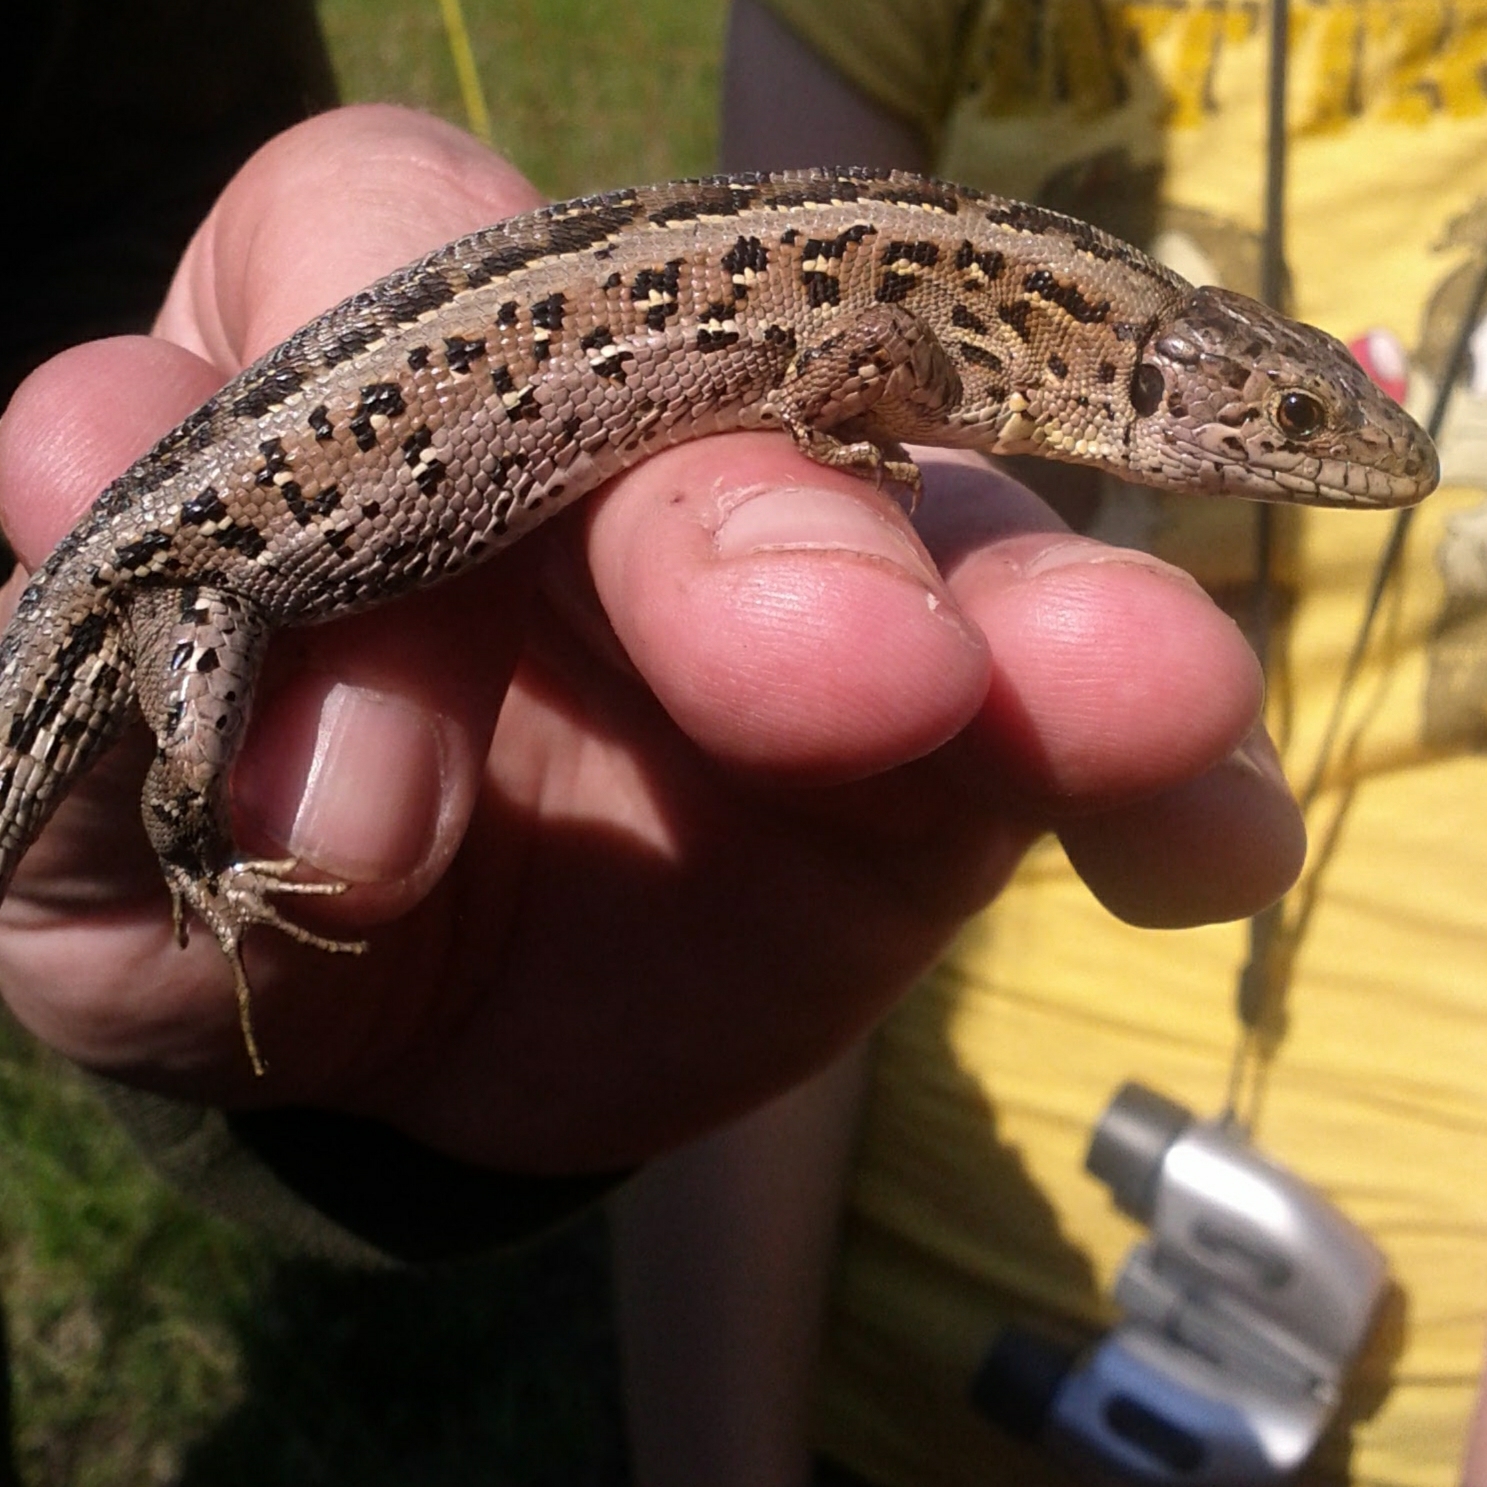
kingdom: Animalia
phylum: Chordata
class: Squamata
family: Lacertidae
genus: Lacerta
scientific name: Lacerta agilis
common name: Sand lizard
